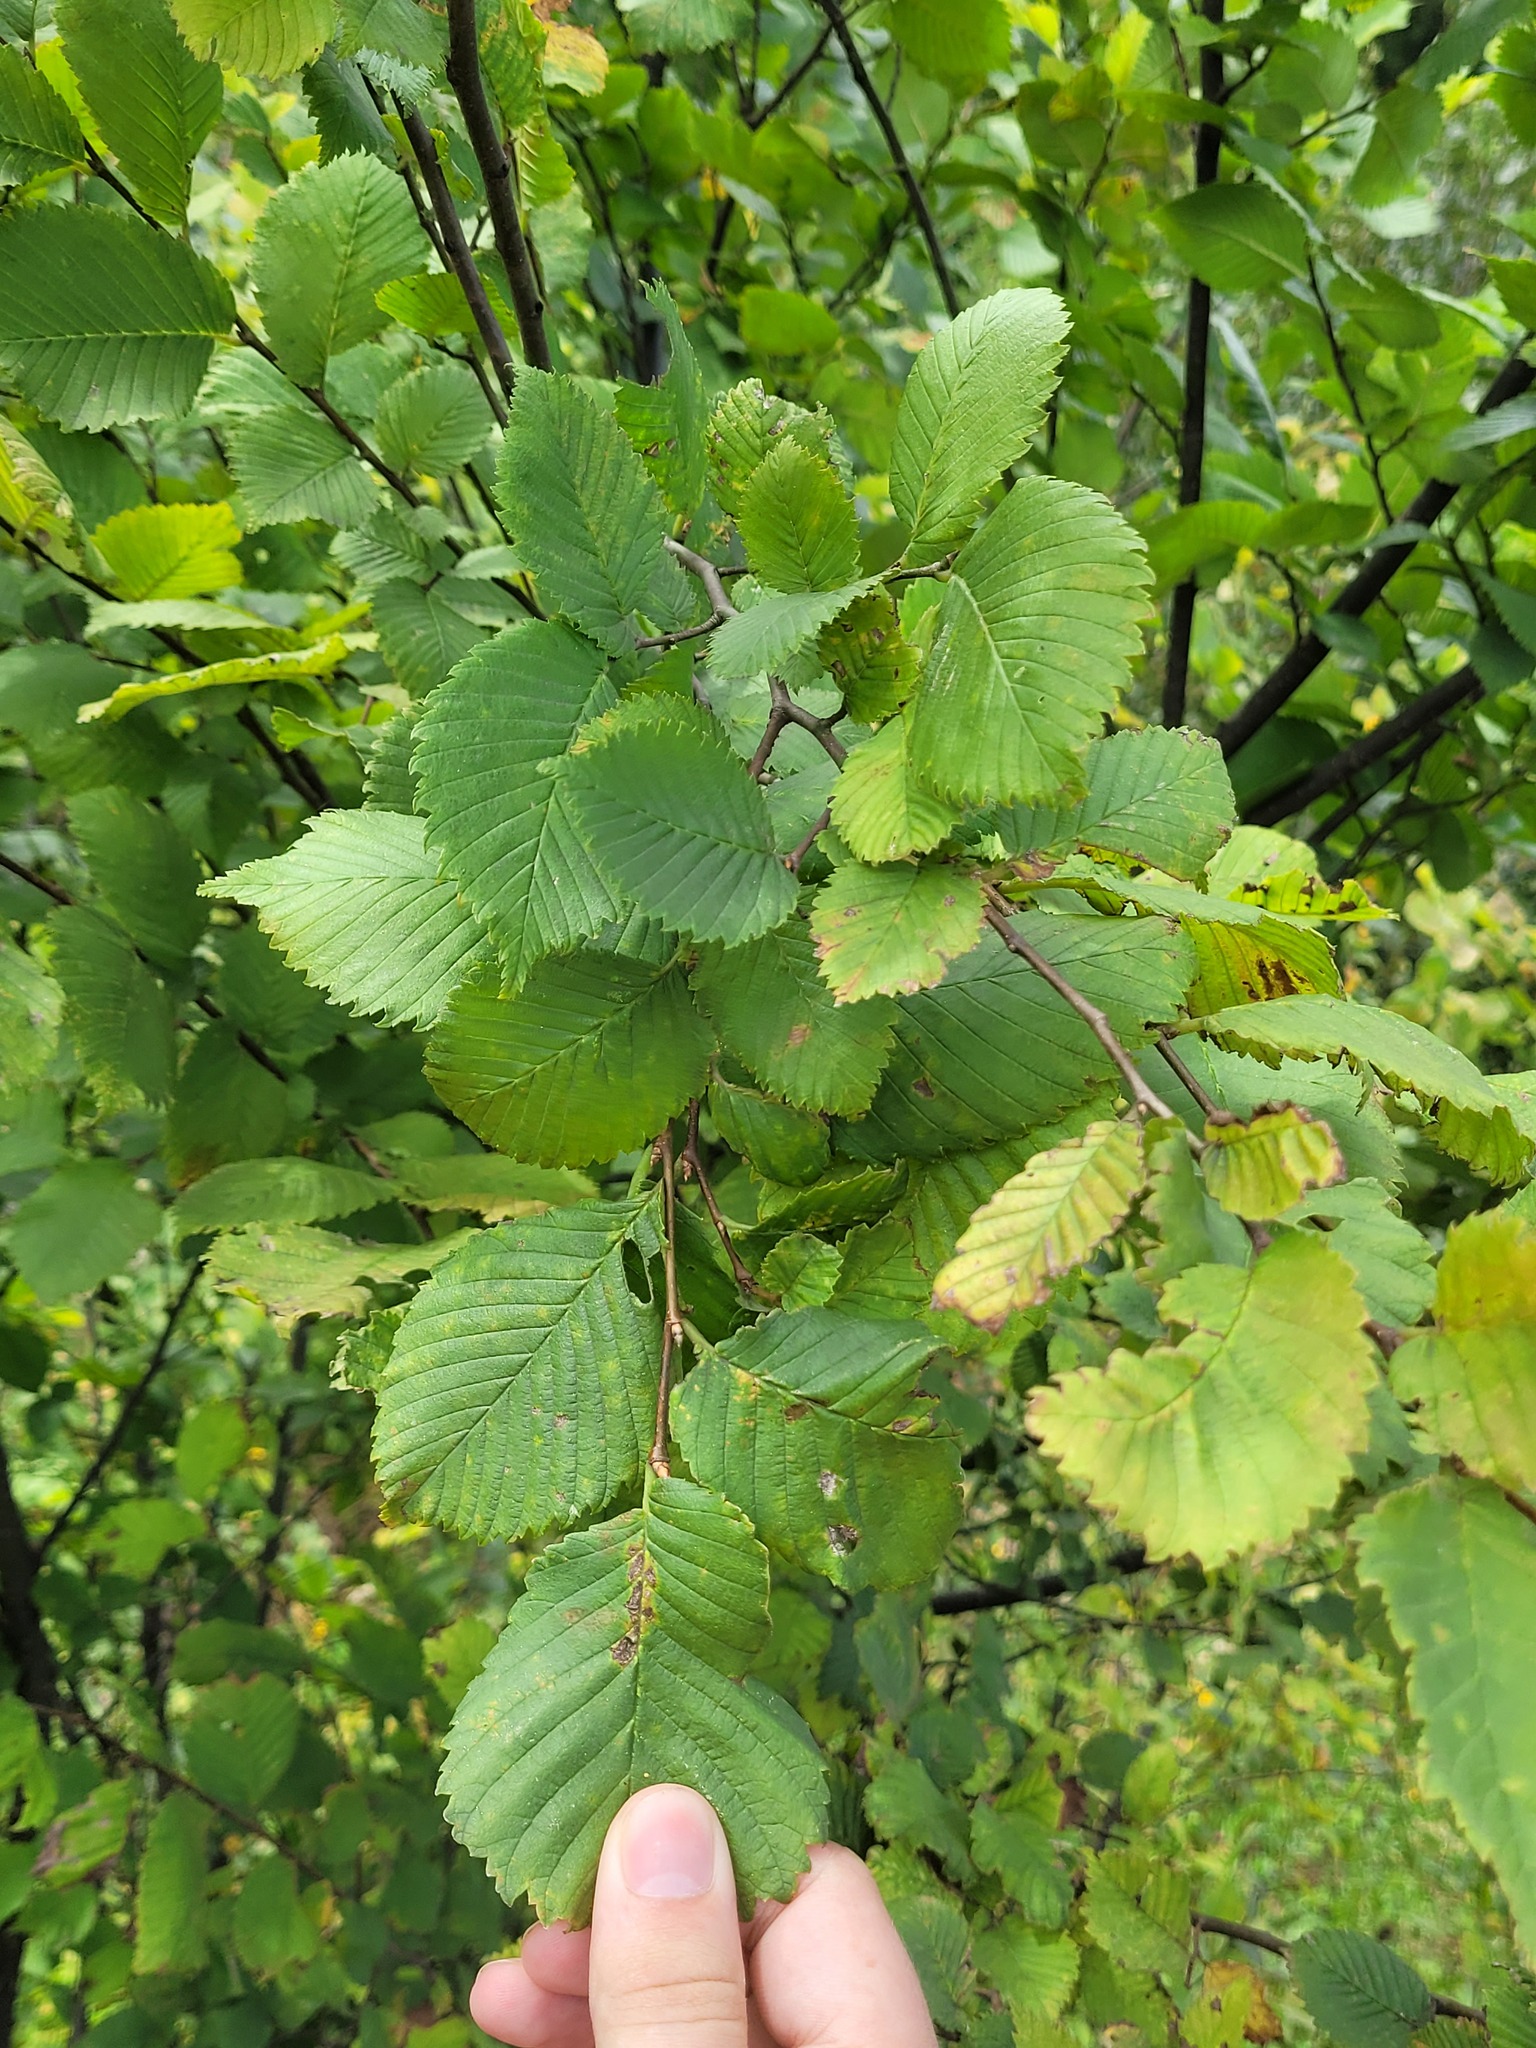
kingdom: Plantae
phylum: Tracheophyta
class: Magnoliopsida
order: Rosales
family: Ulmaceae
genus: Ulmus
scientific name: Ulmus laevis
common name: European white-elm
